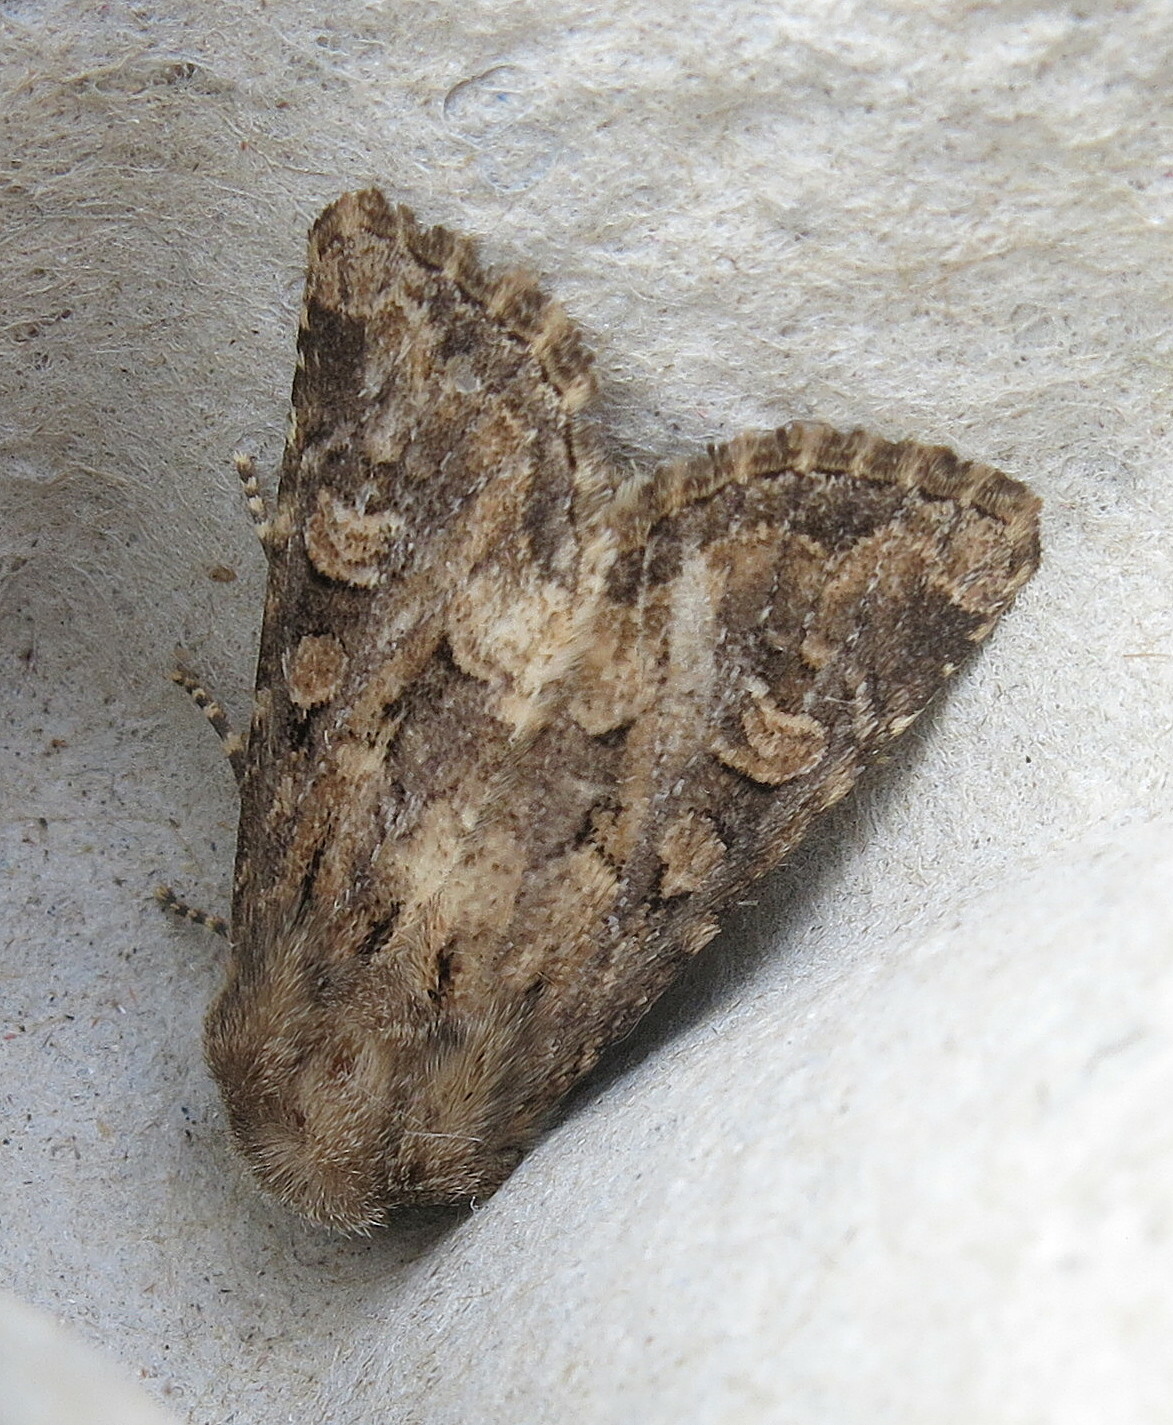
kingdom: Animalia
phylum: Arthropoda
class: Insecta
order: Lepidoptera
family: Noctuidae
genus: Luperina
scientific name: Luperina testacea
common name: Flounced rustic
